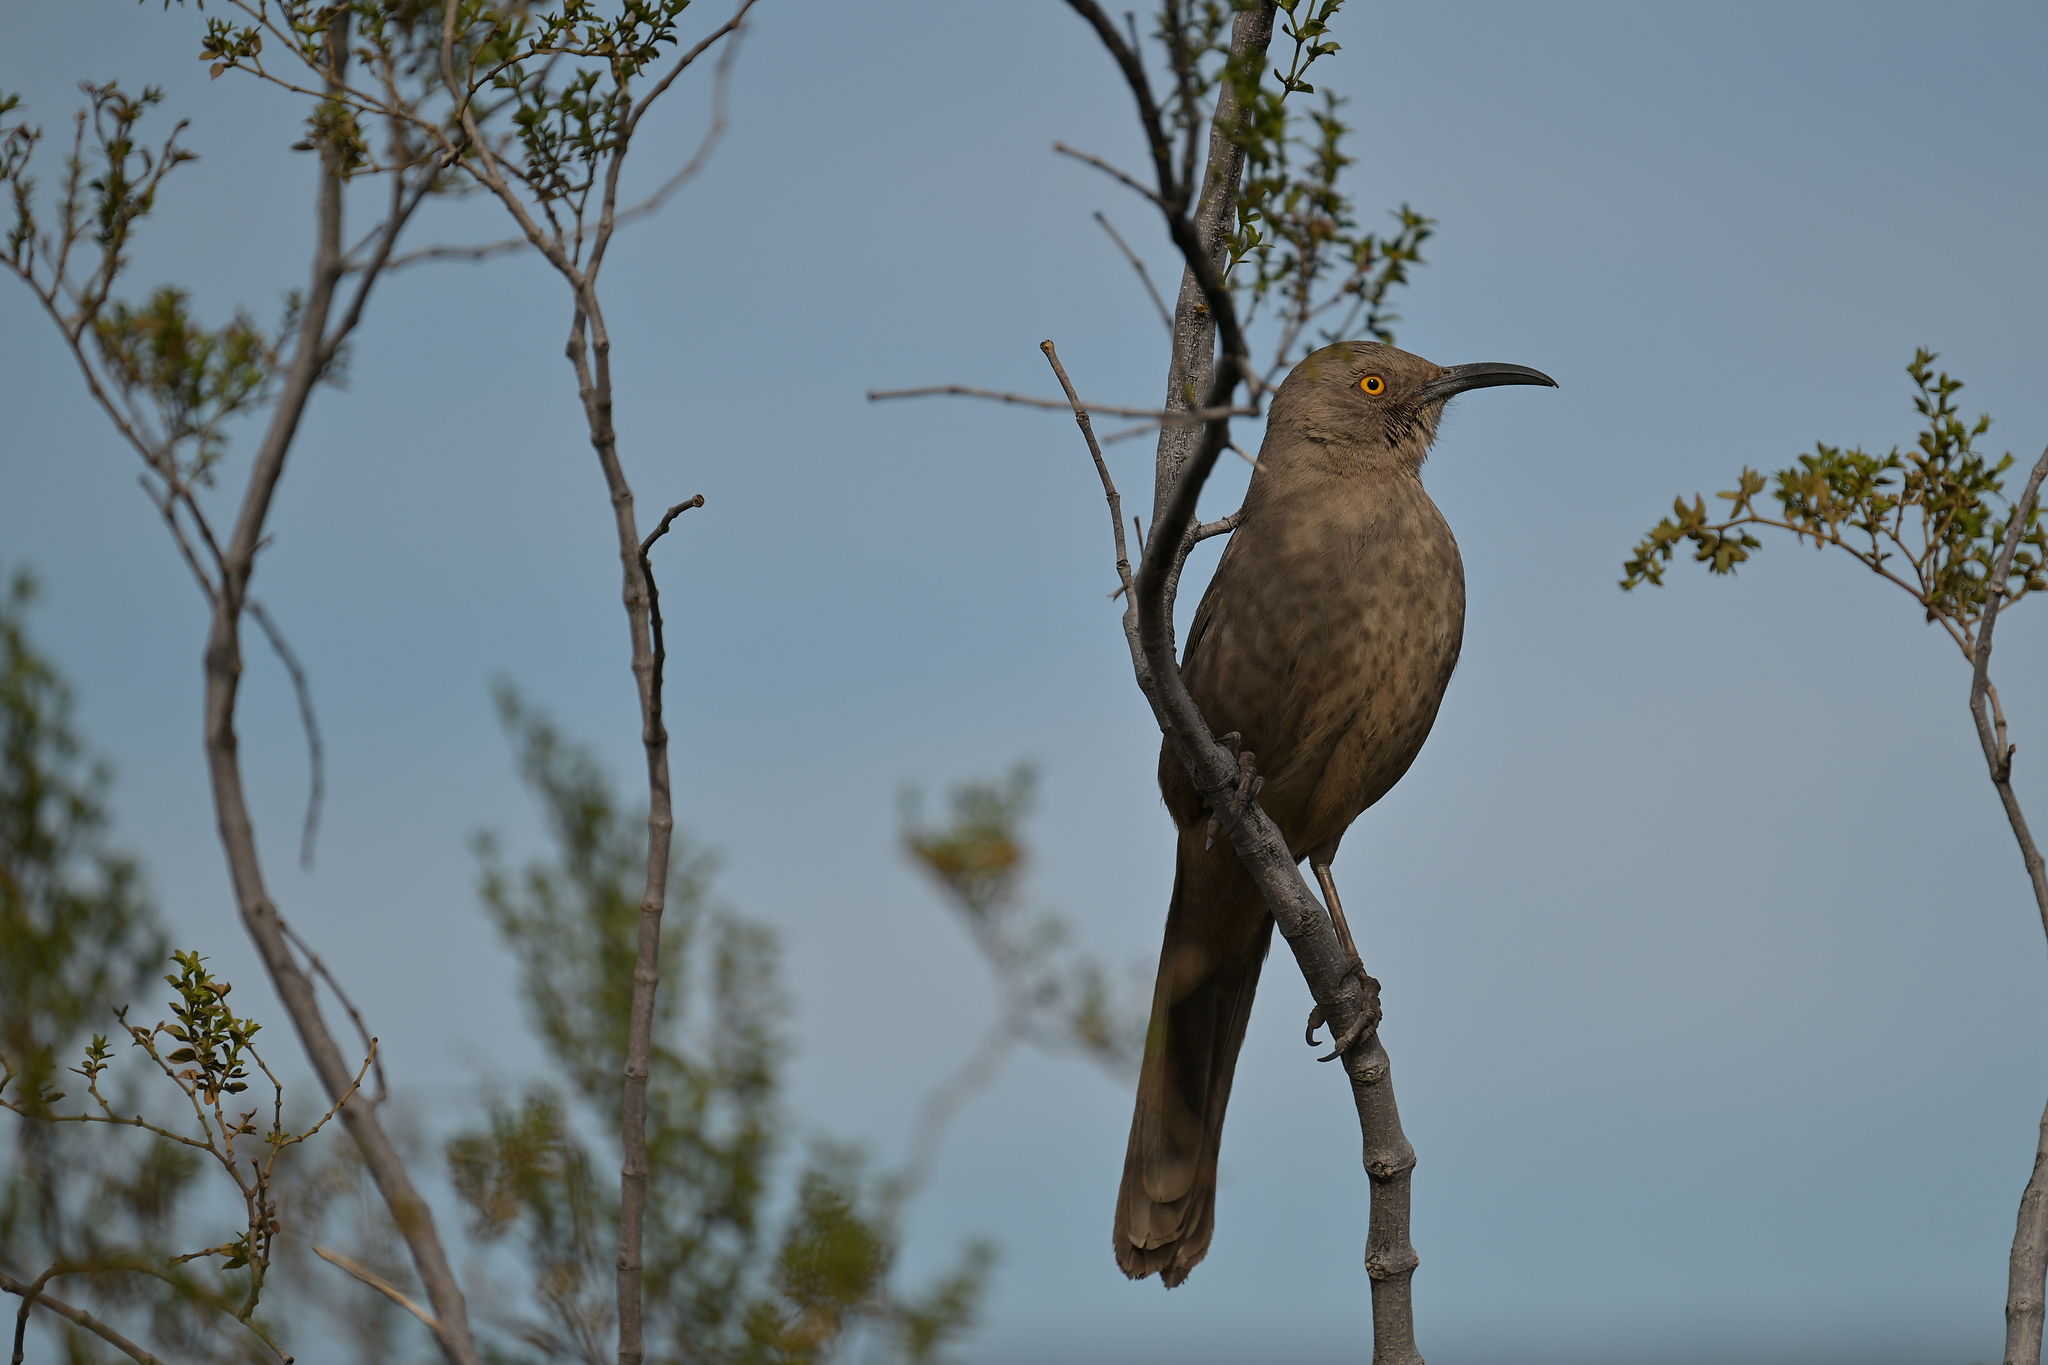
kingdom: Animalia
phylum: Chordata
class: Aves
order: Passeriformes
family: Mimidae
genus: Toxostoma
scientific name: Toxostoma curvirostre
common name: Curve-billed thrasher
